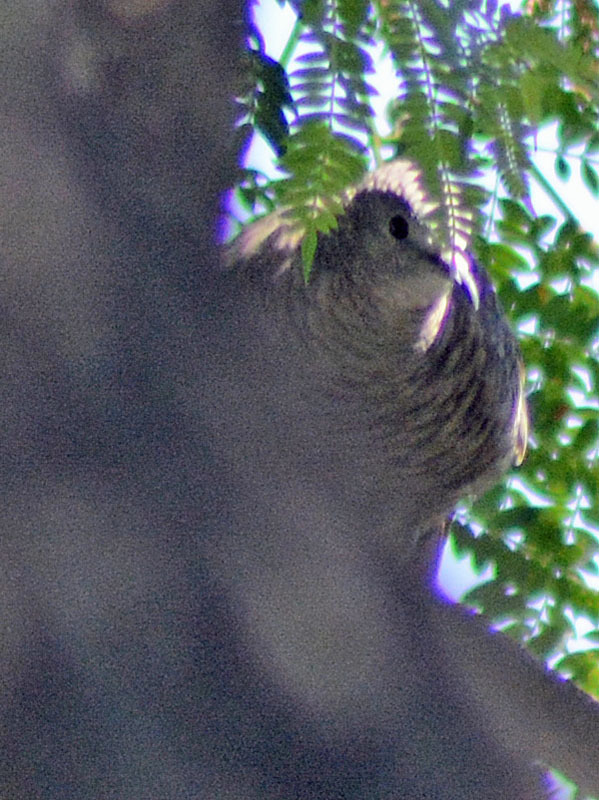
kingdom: Animalia
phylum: Chordata
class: Aves
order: Columbiformes
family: Columbidae
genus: Columbina
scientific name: Columbina inca
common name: Inca dove
